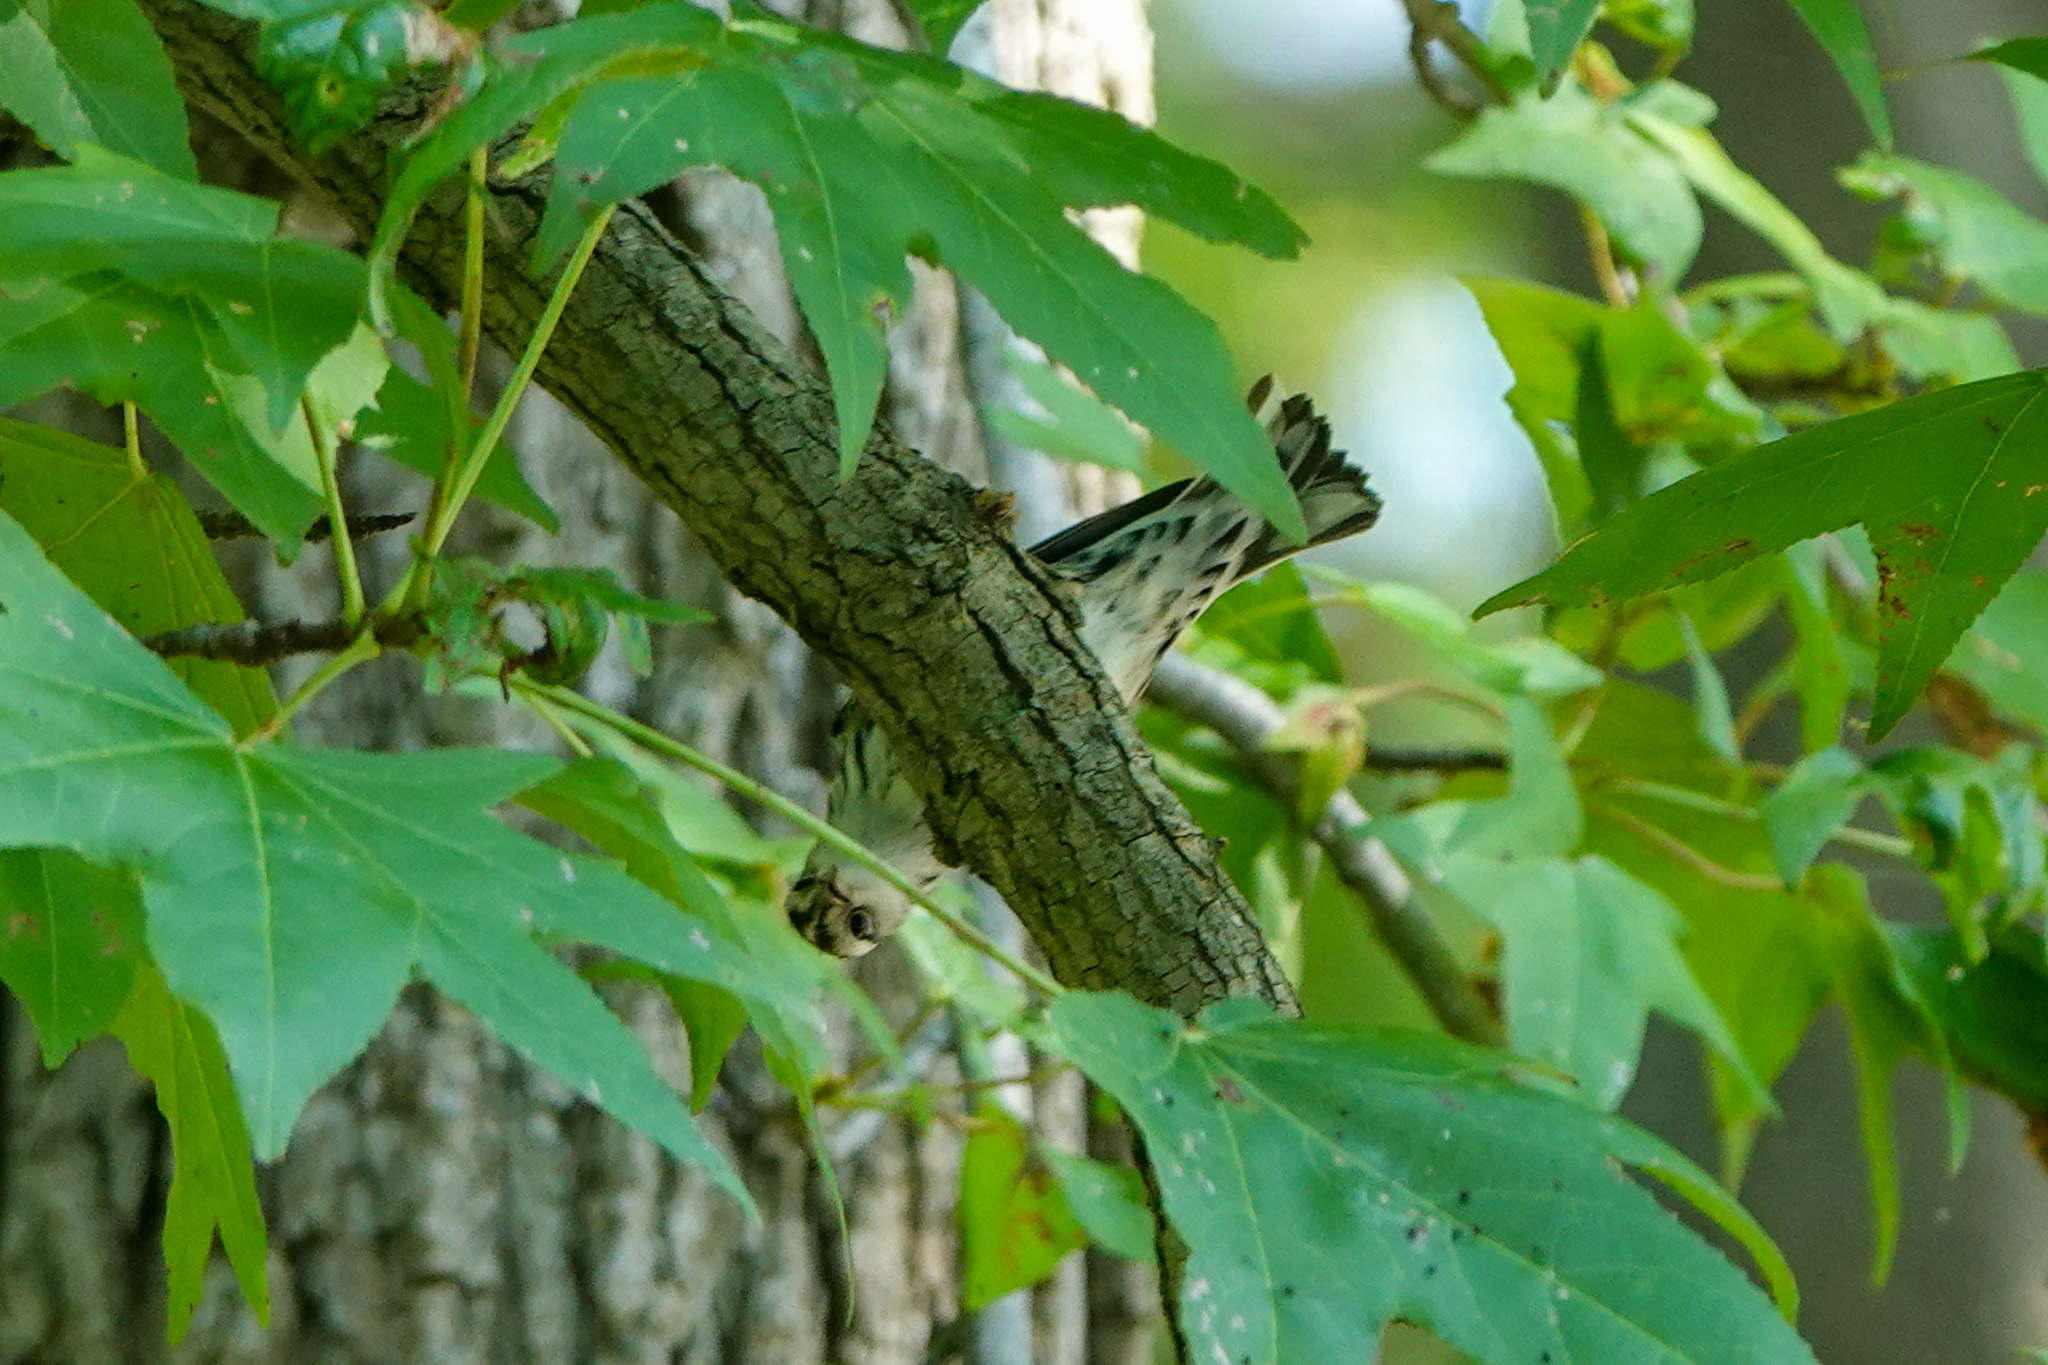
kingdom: Animalia
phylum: Chordata
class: Aves
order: Passeriformes
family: Parulidae
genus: Mniotilta
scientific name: Mniotilta varia
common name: Black-and-white warbler
